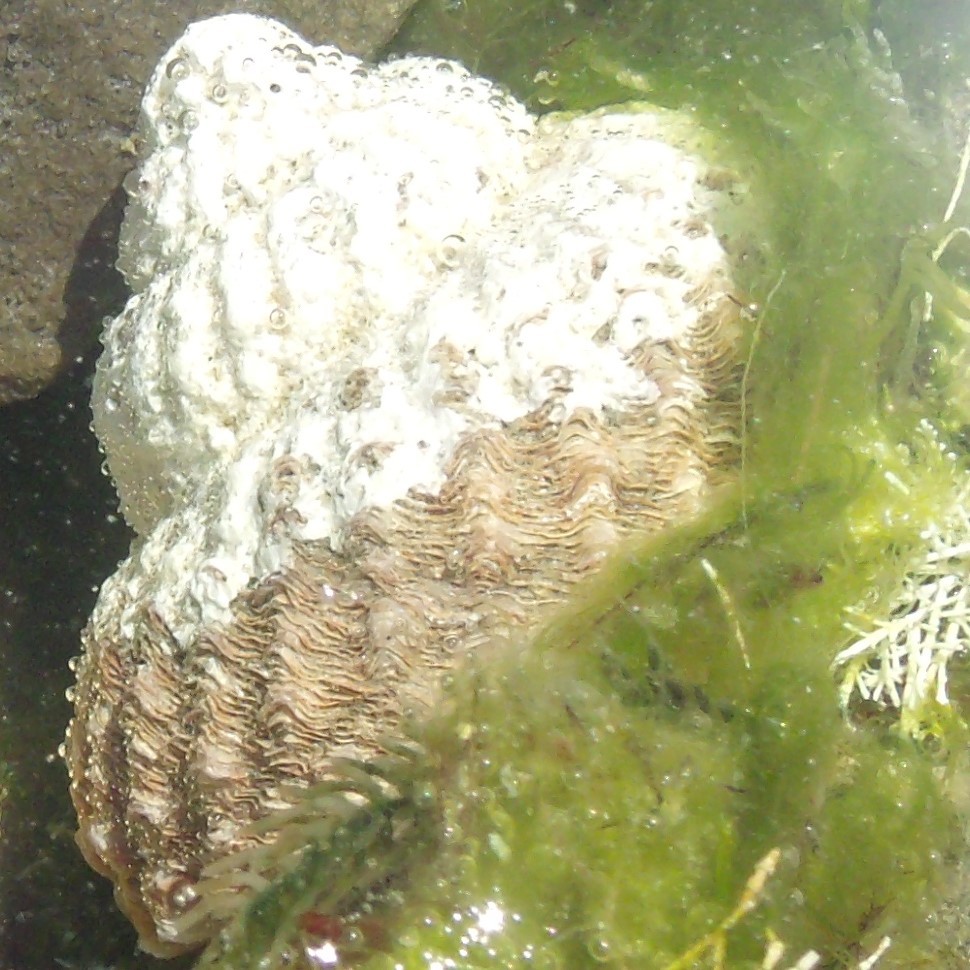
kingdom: Animalia
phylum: Mollusca
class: Gastropoda
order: Trochida
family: Turbinidae
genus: Cookia
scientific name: Cookia sulcata
